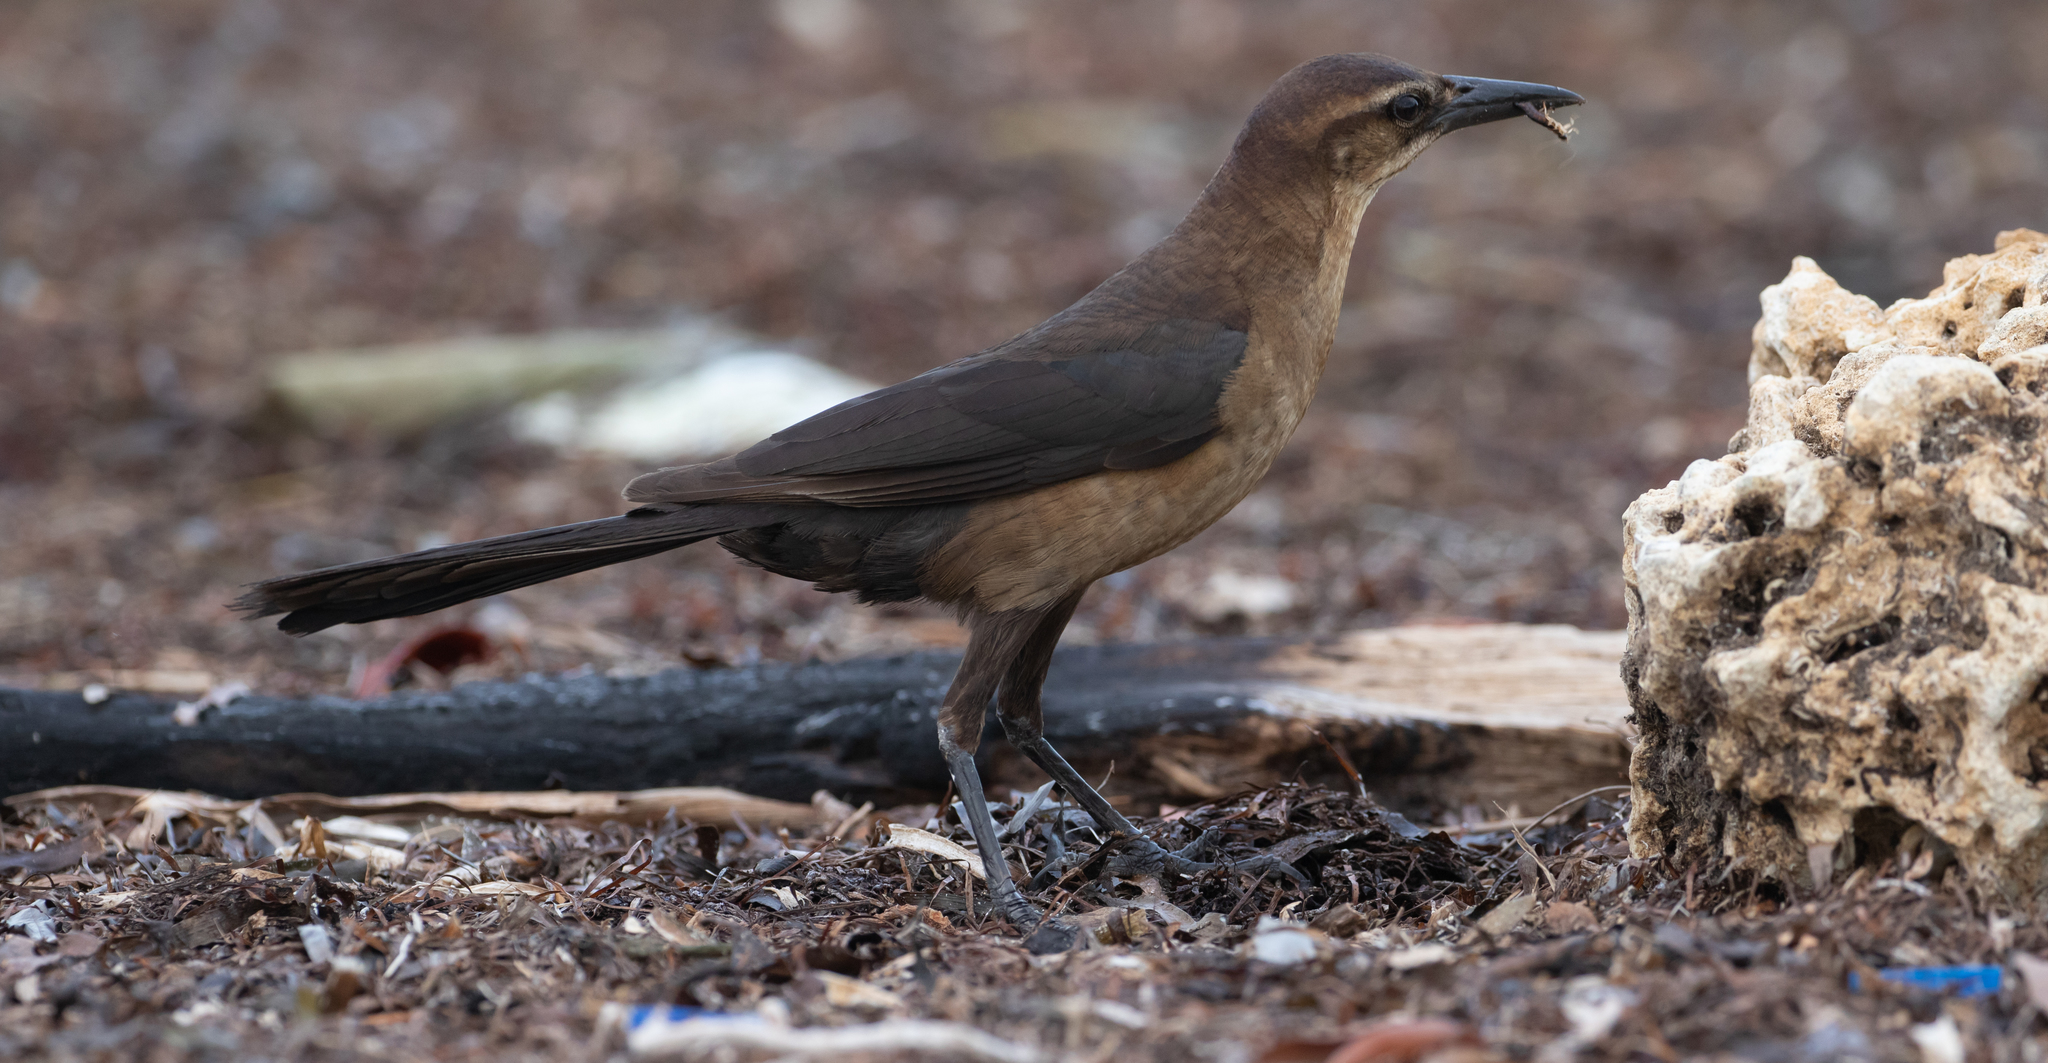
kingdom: Animalia
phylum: Chordata
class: Aves
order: Passeriformes
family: Icteridae
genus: Quiscalus
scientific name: Quiscalus major
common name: Boat-tailed grackle
